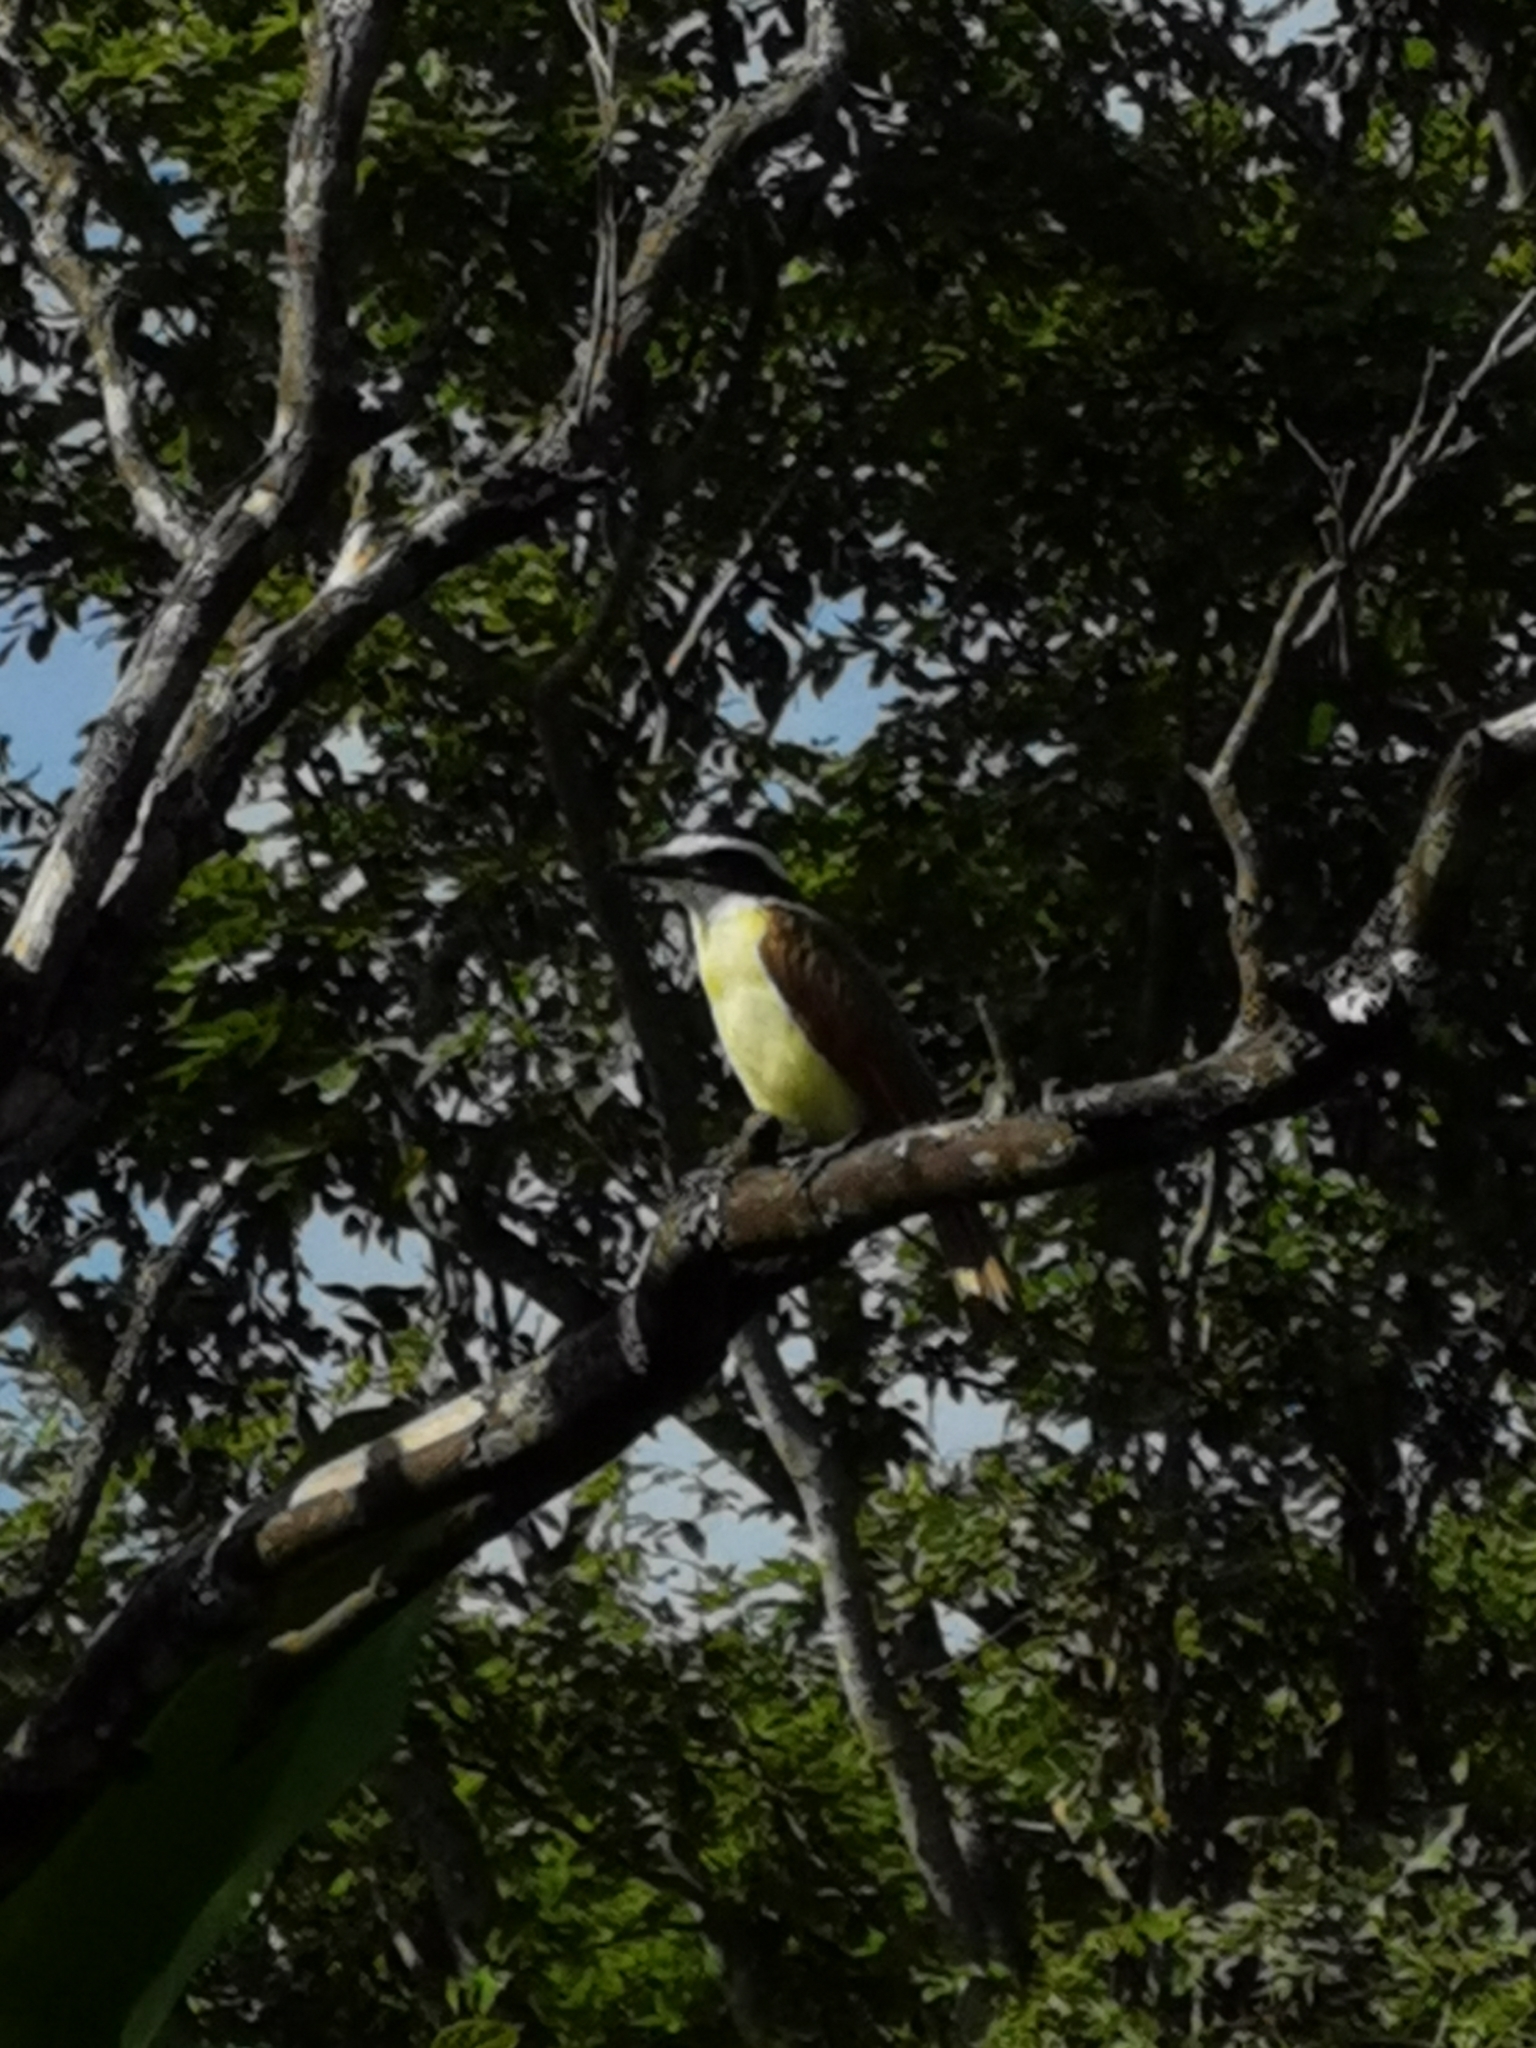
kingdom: Animalia
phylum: Chordata
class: Aves
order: Passeriformes
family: Tyrannidae
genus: Pitangus
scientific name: Pitangus sulphuratus
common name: Great kiskadee
